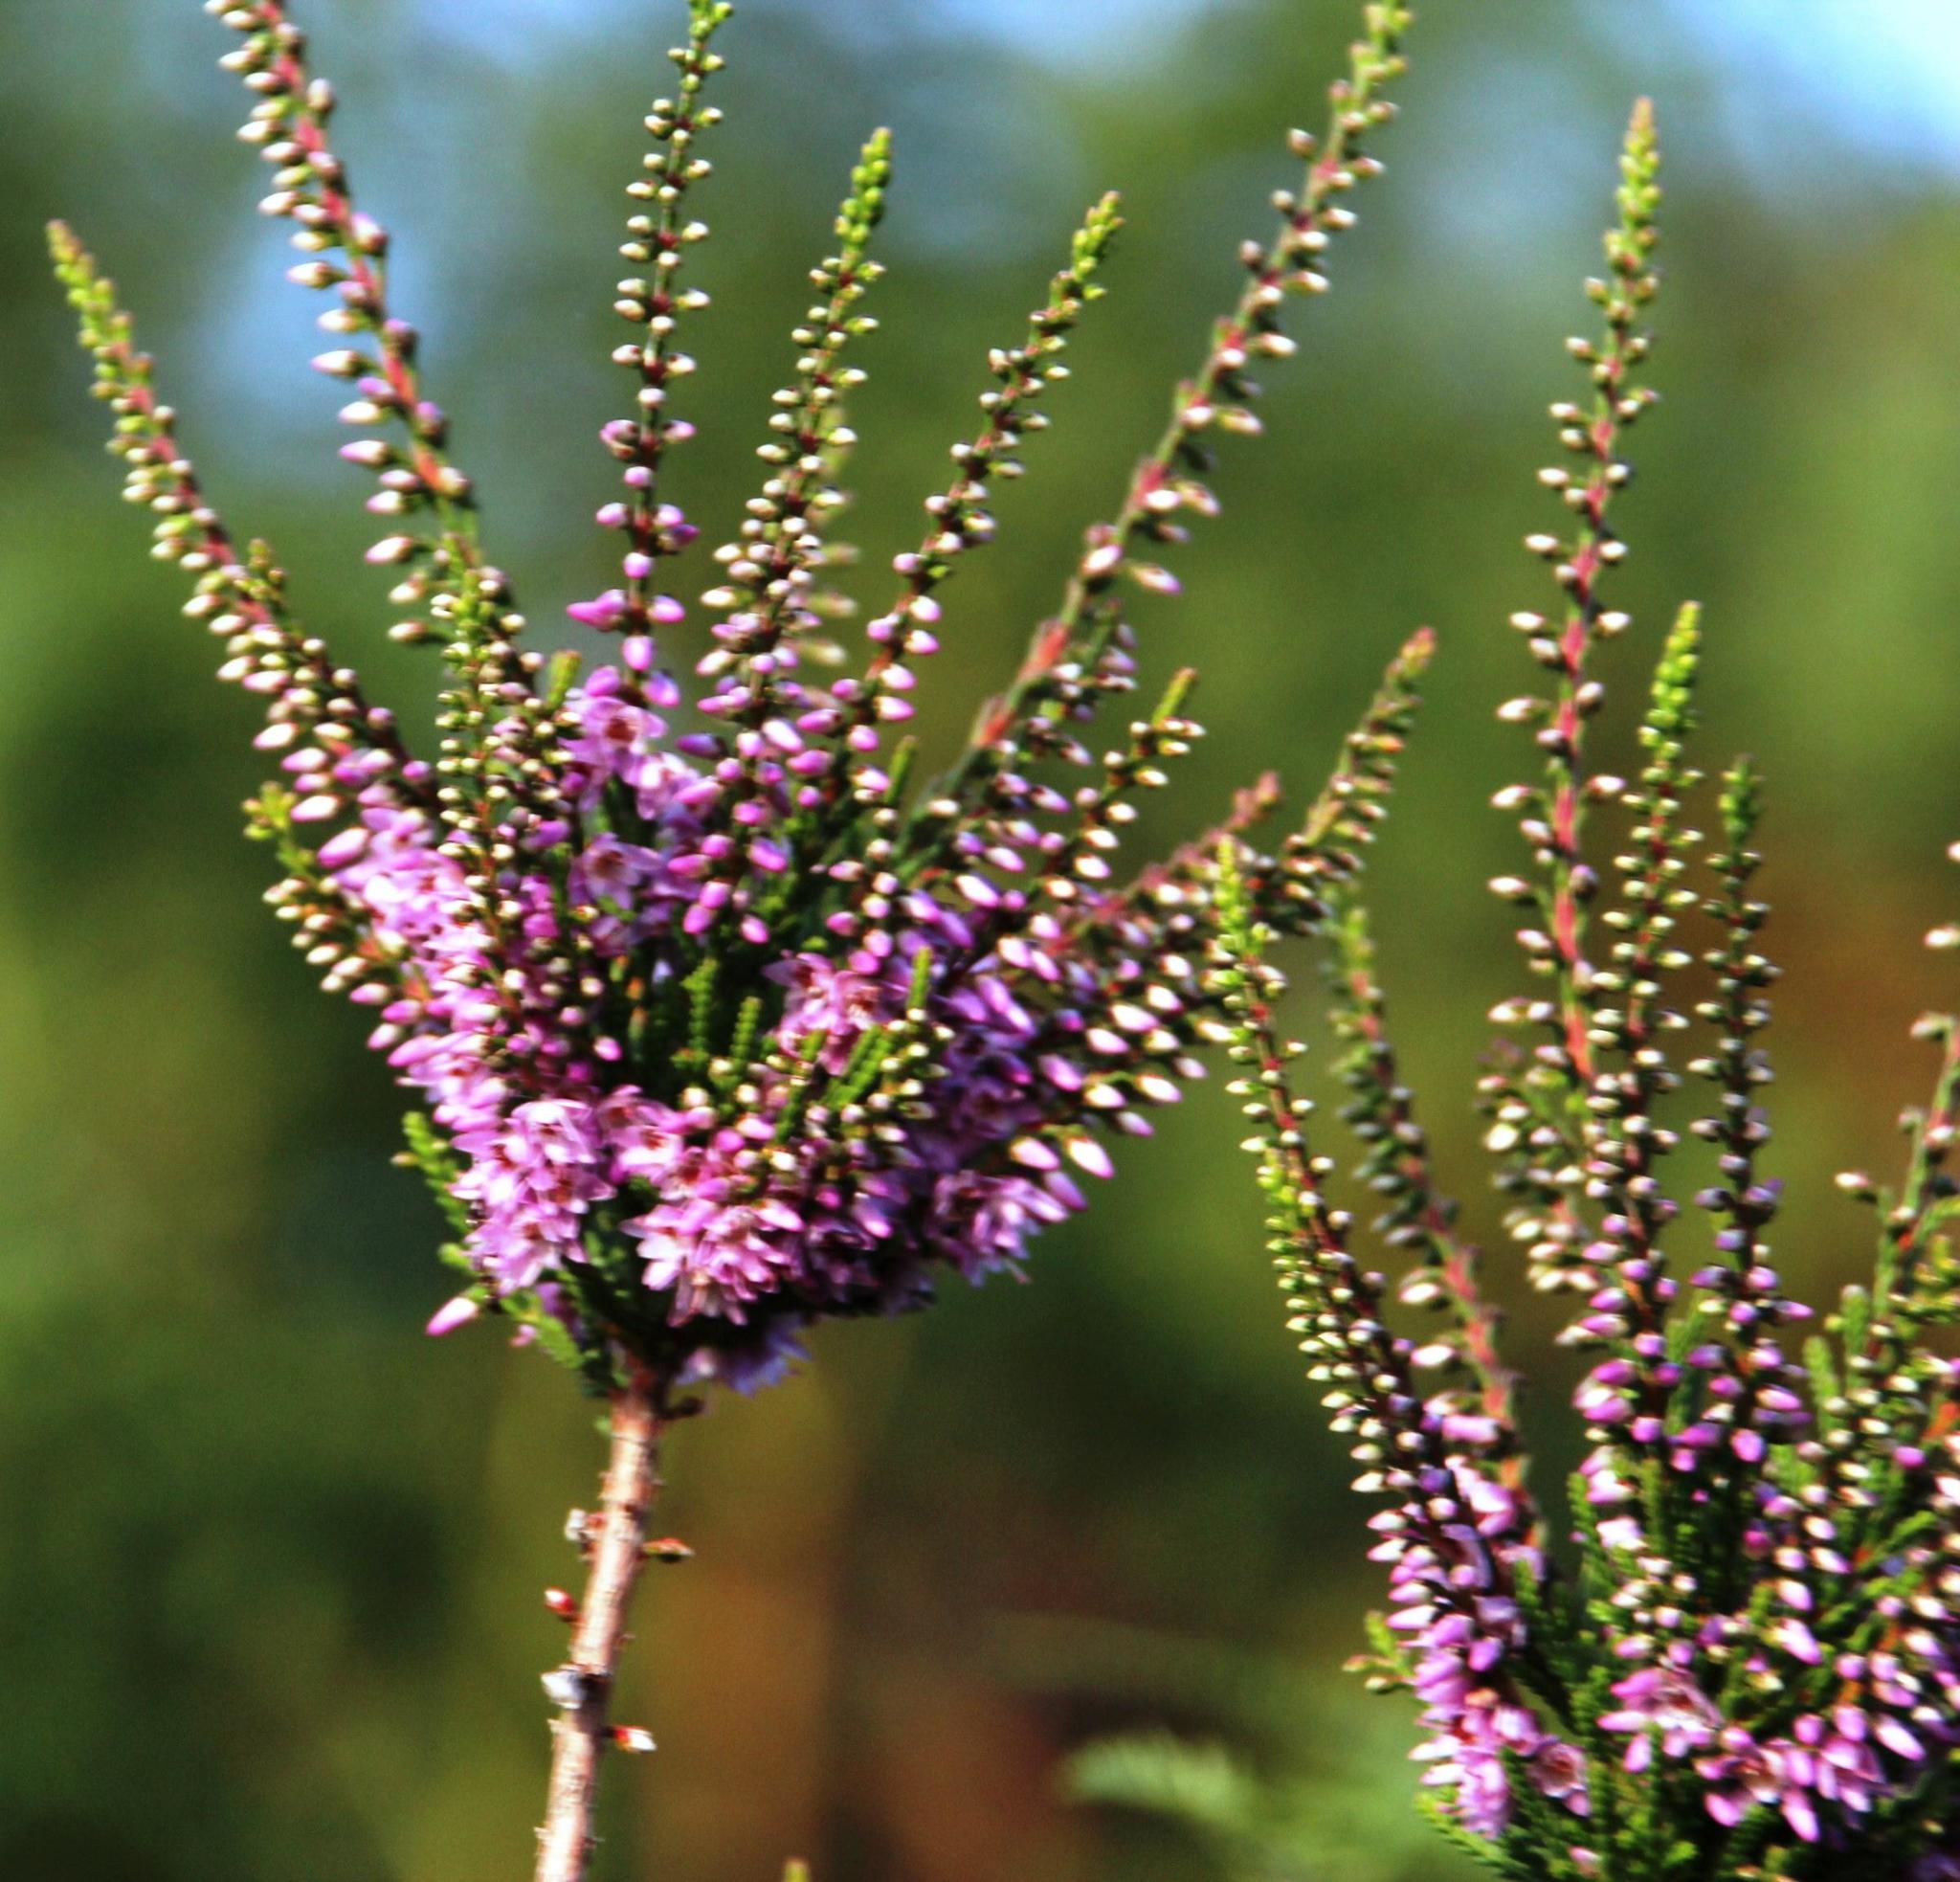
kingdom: Plantae
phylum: Tracheophyta
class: Magnoliopsida
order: Ericales
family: Ericaceae
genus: Calluna
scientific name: Calluna vulgaris
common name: Heather
